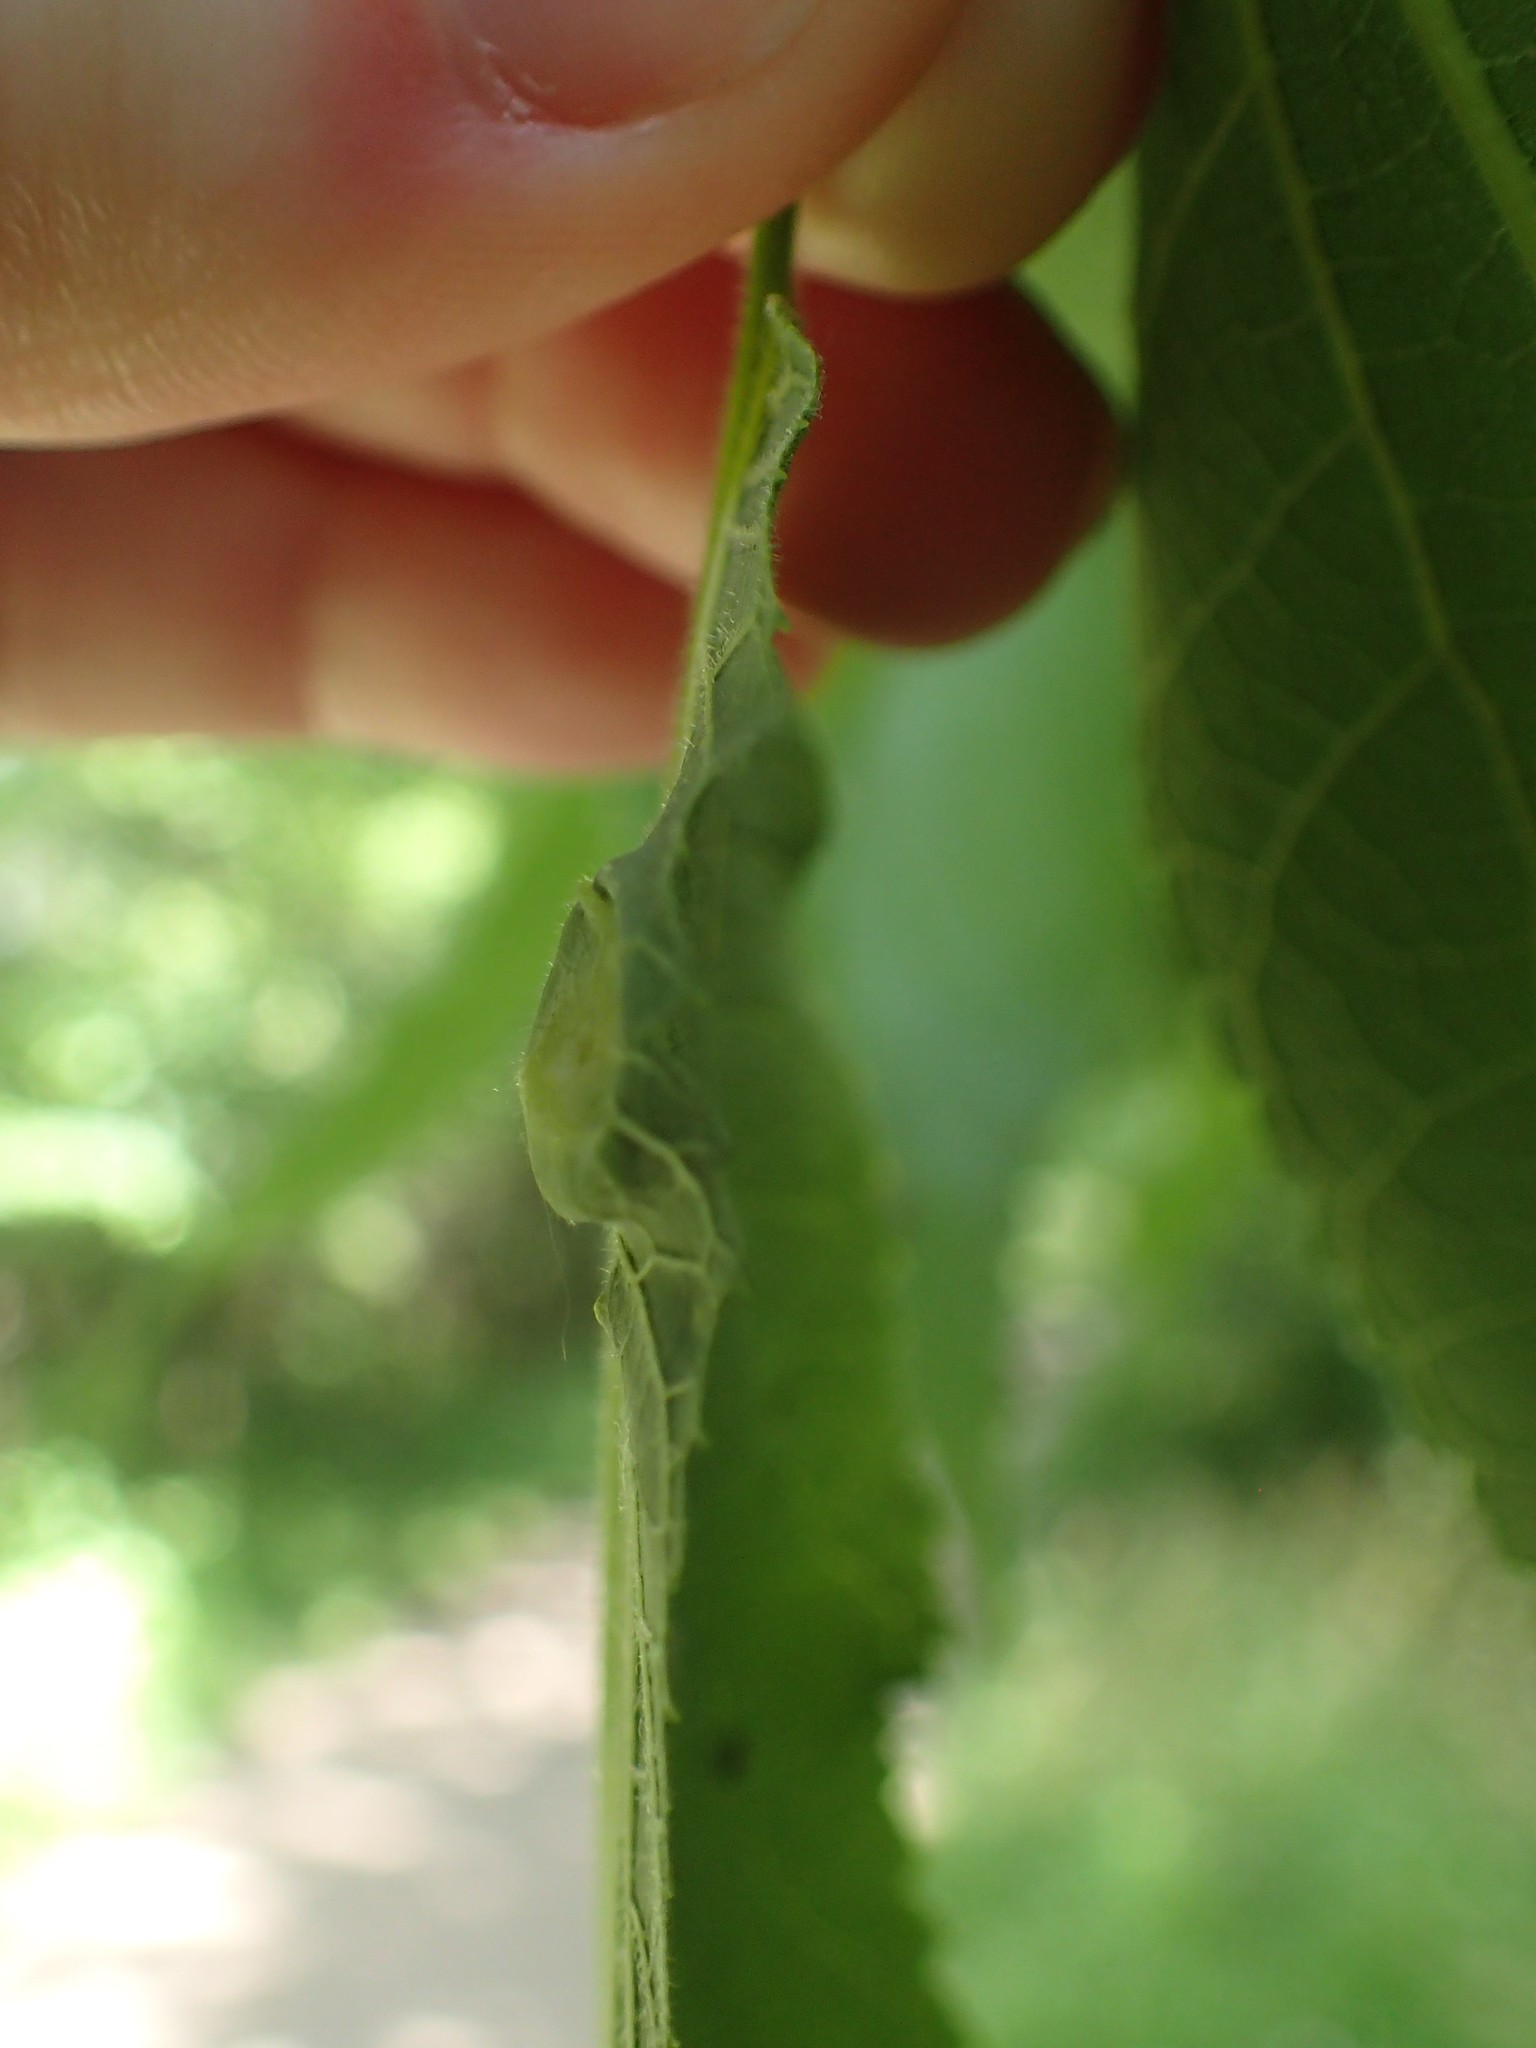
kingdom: Animalia
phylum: Arthropoda
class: Insecta
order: Hemiptera
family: Aphalaridae
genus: Pachypsylla
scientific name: Pachypsylla celtidisumbilicus
